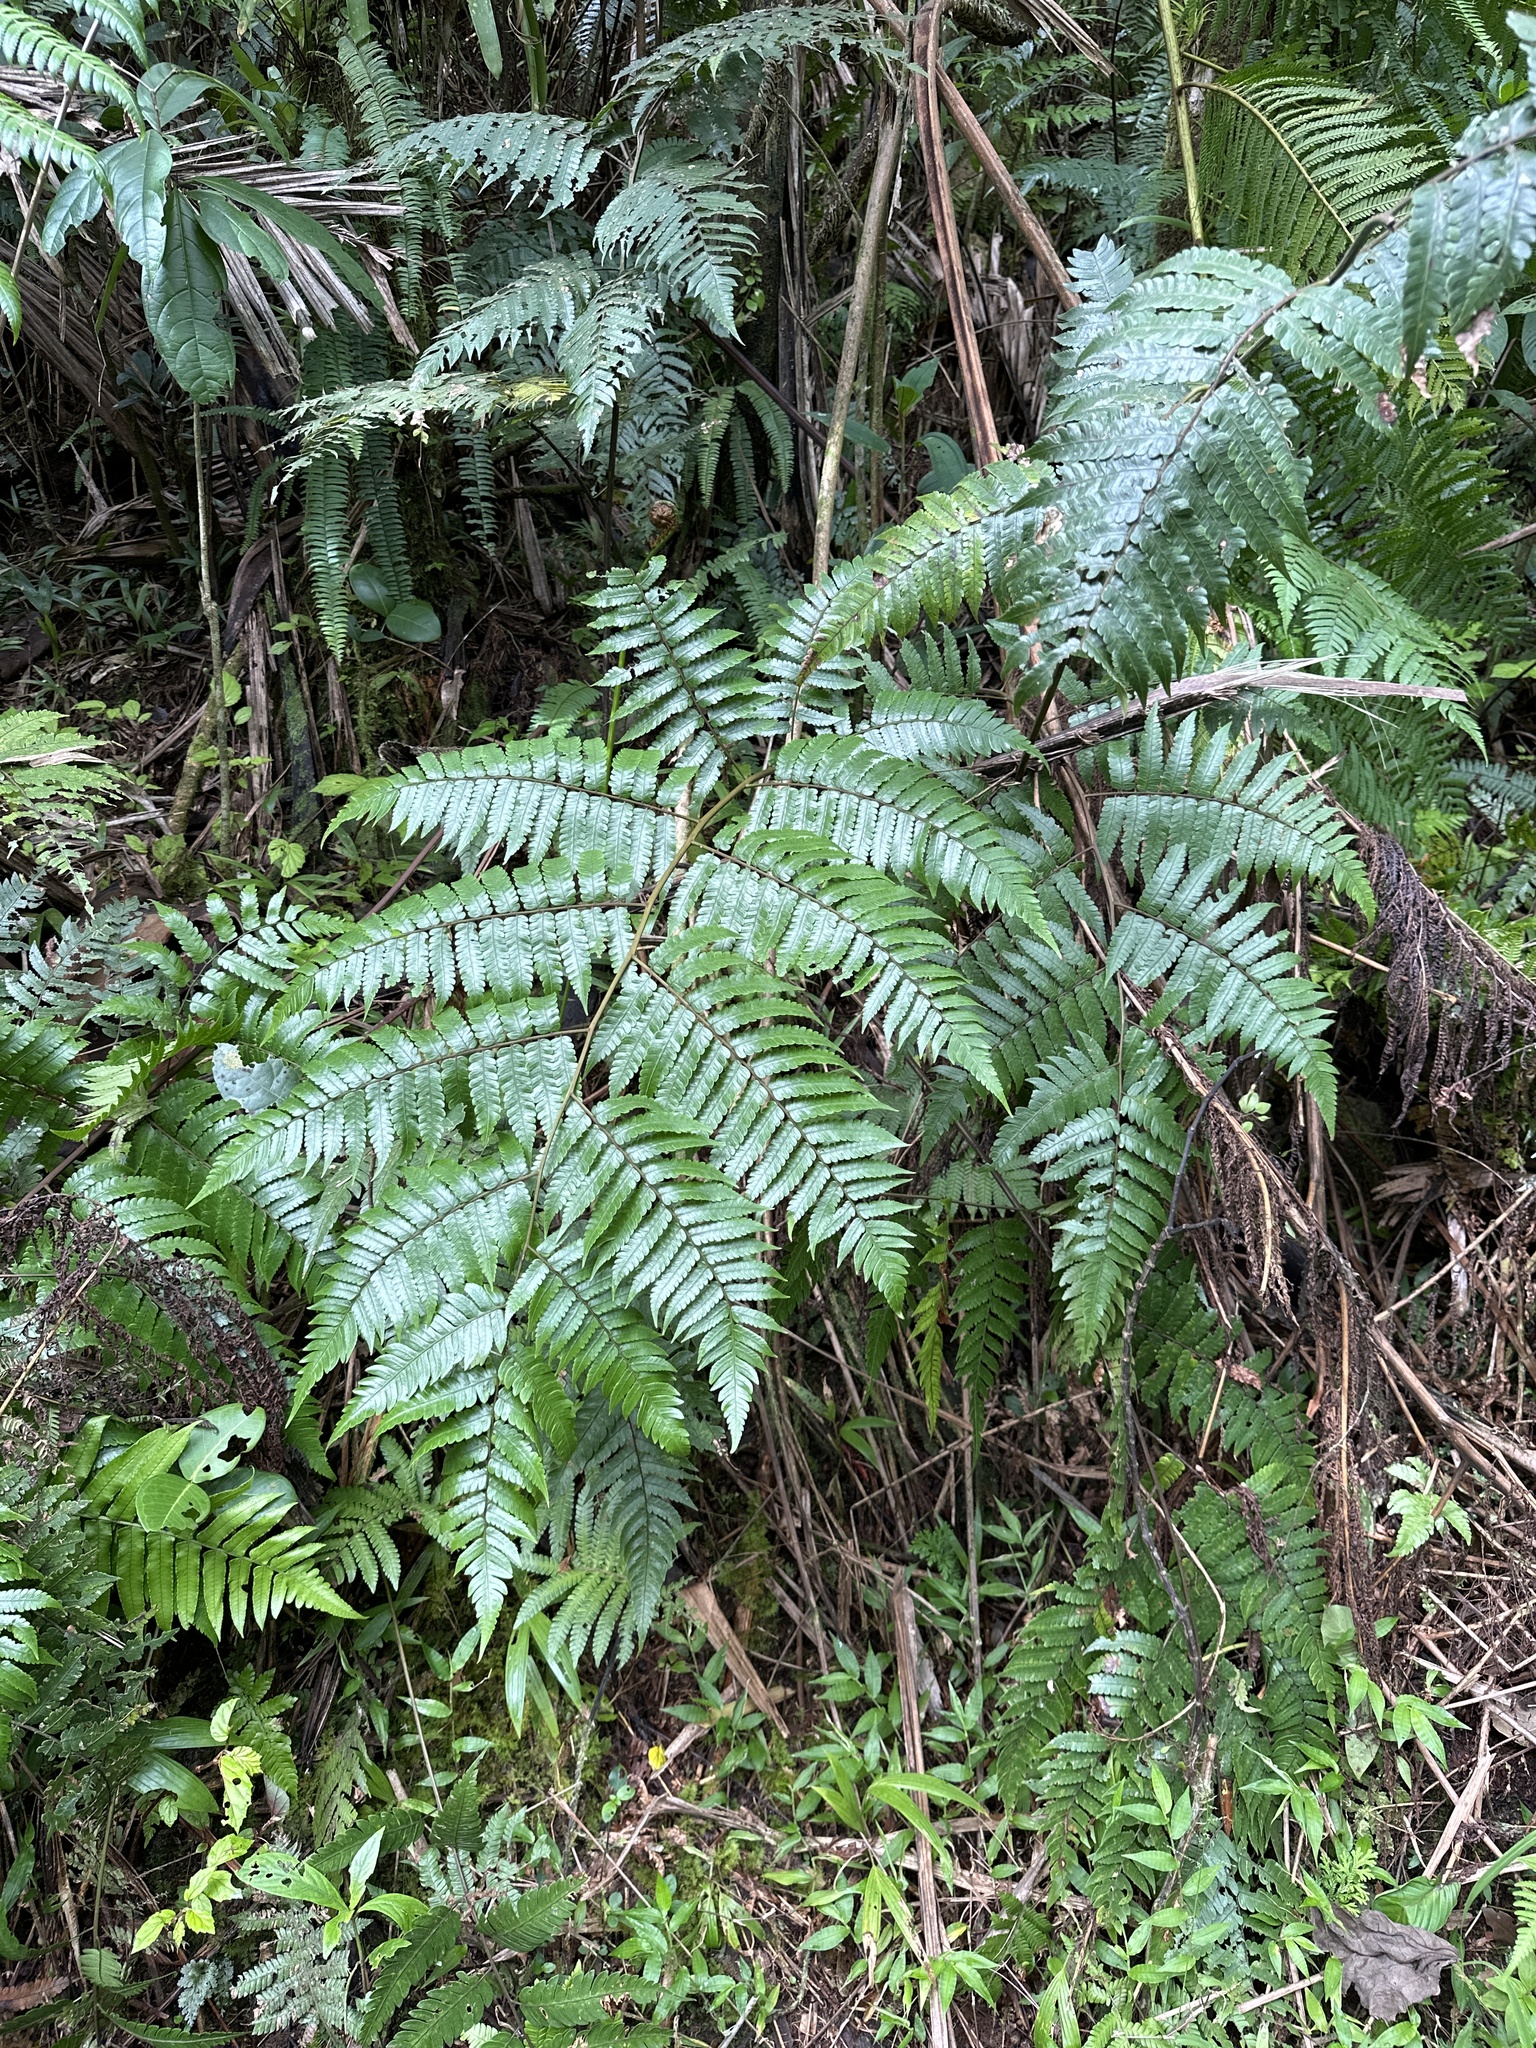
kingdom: Plantae
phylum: Tracheophyta
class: Polypodiopsida
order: Cyatheales
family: Cyatheaceae
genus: Cyathea
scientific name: Cyathea borinquena
